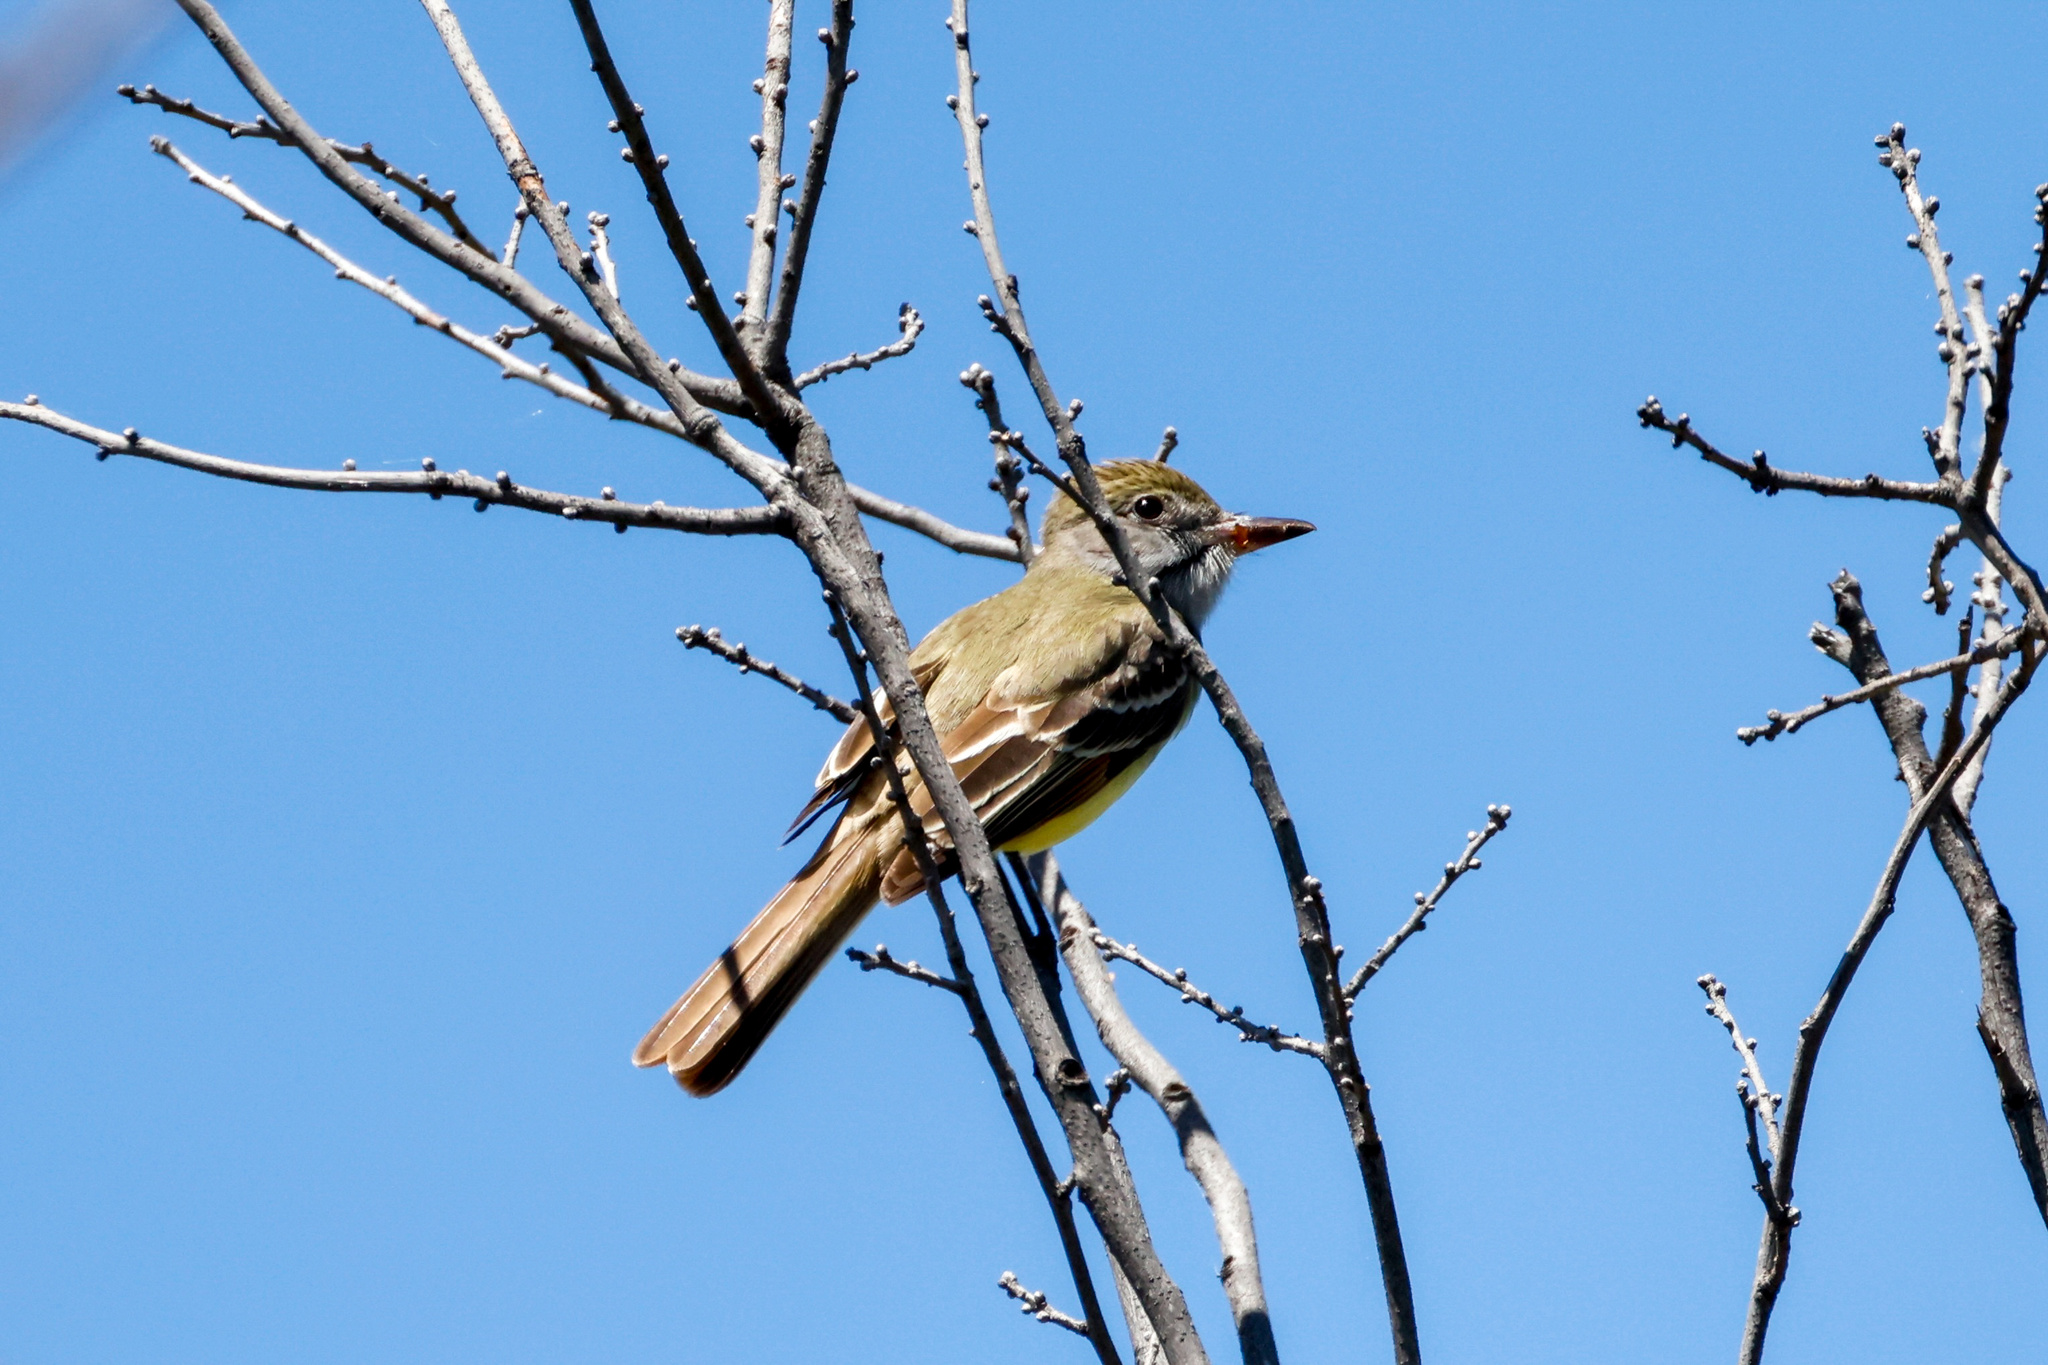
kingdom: Animalia
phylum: Chordata
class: Aves
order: Passeriformes
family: Tyrannidae
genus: Myiarchus
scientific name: Myiarchus crinitus
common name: Great crested flycatcher
